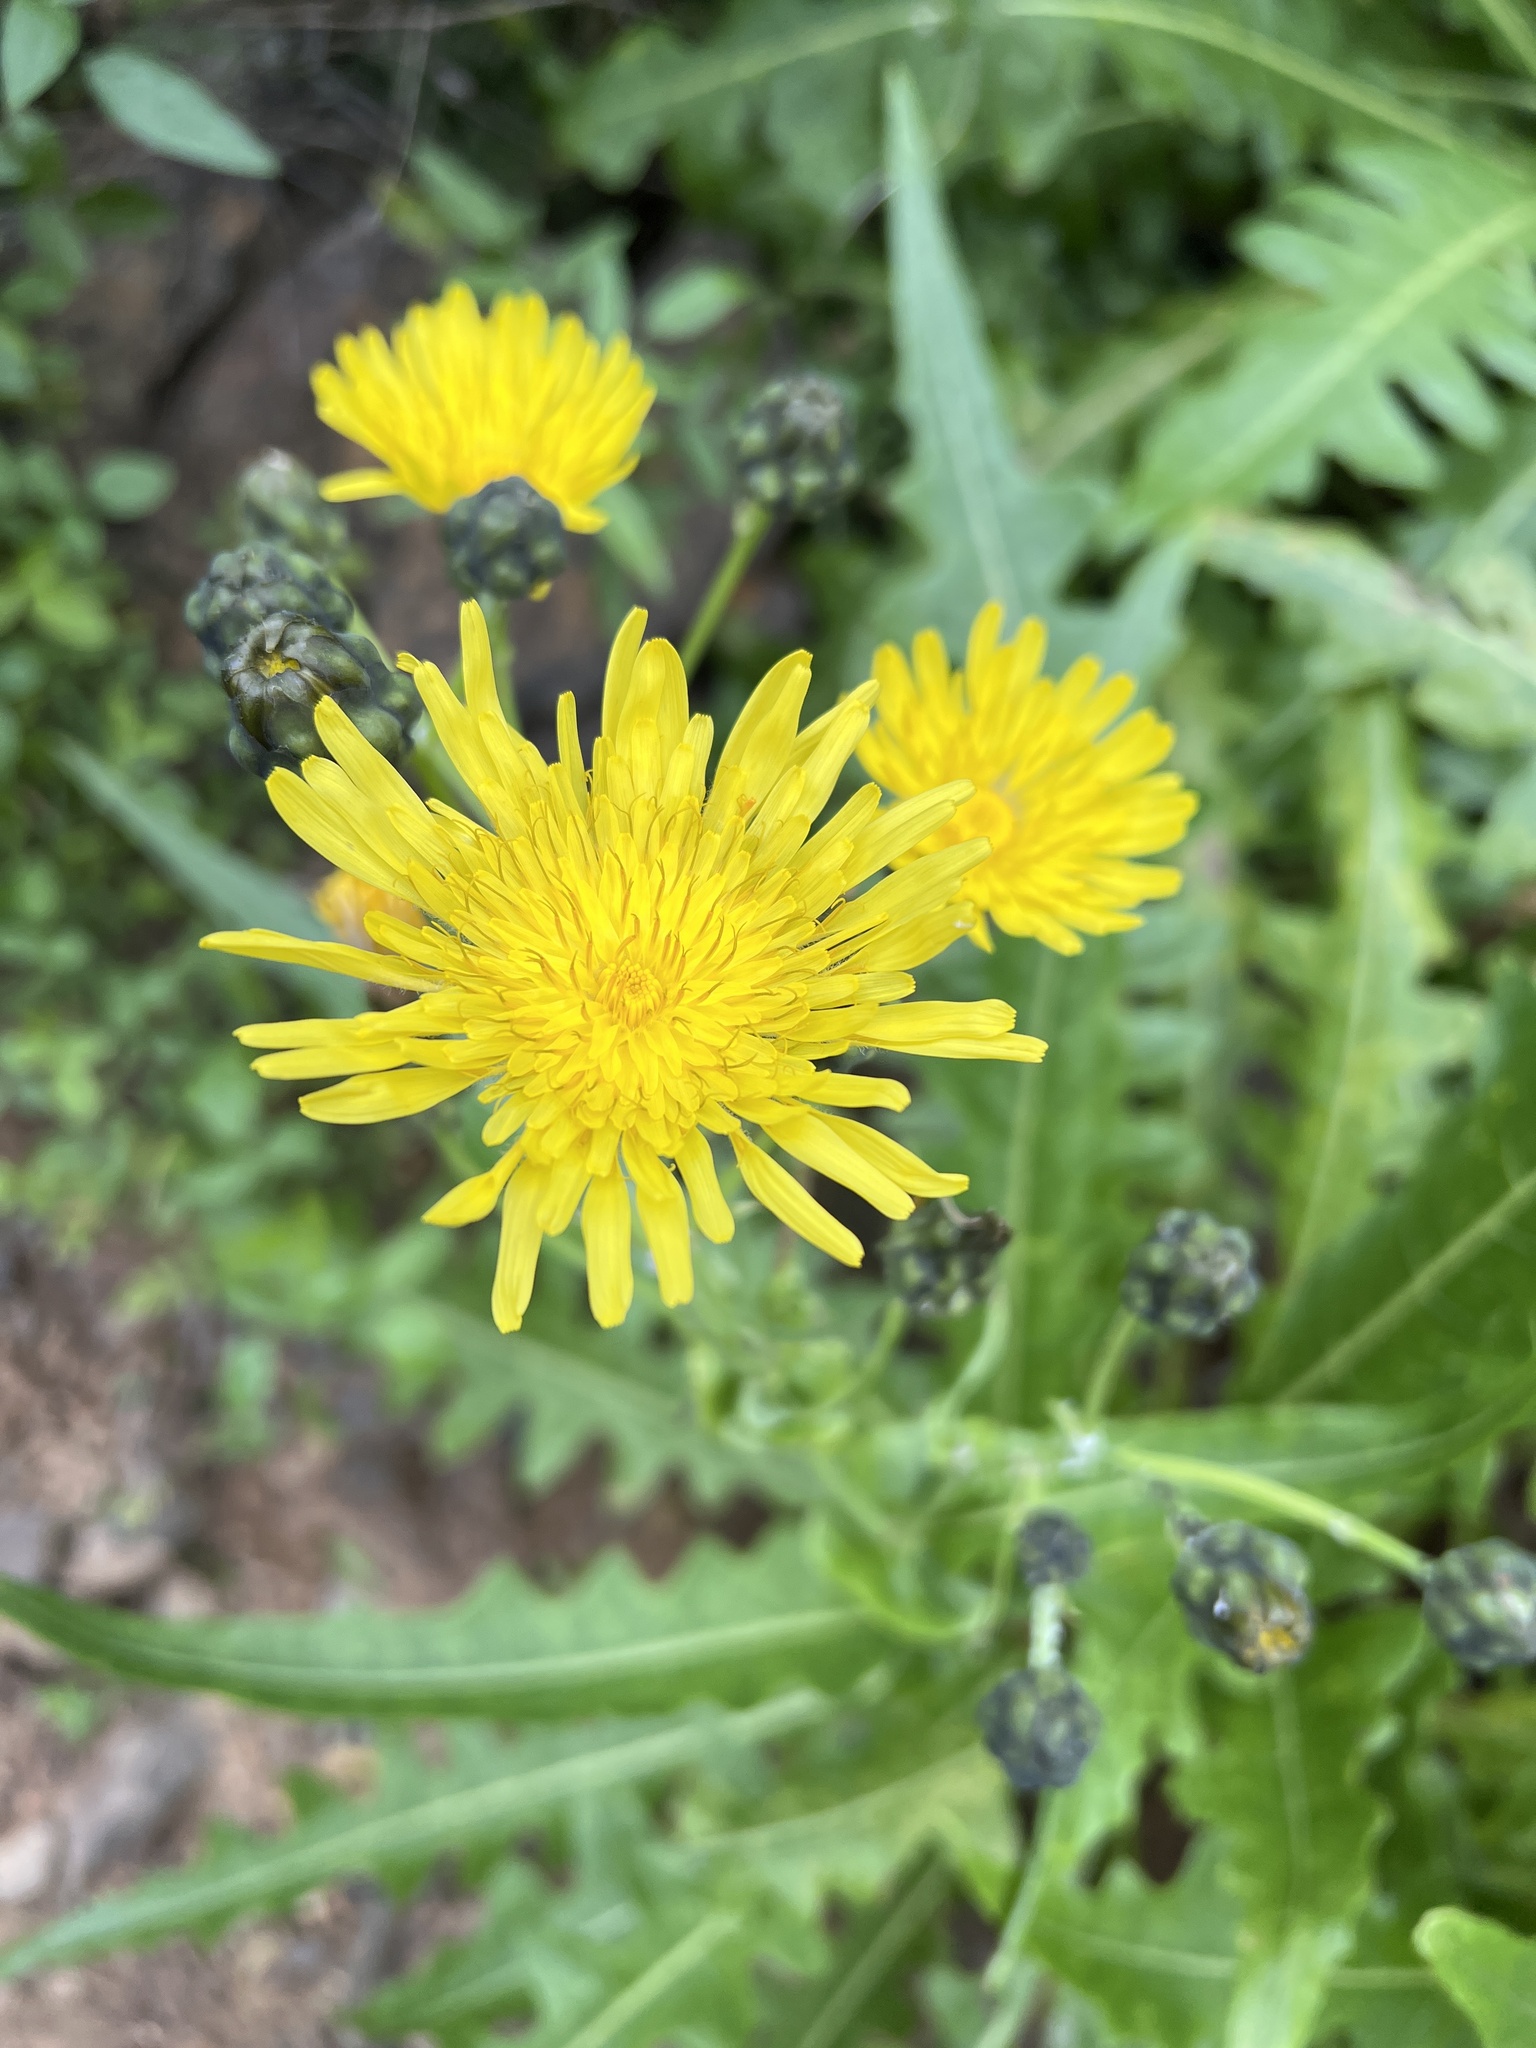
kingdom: Plantae
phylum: Tracheophyta
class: Magnoliopsida
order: Asterales
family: Asteraceae
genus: Sonchus
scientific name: Sonchus hierrensis
